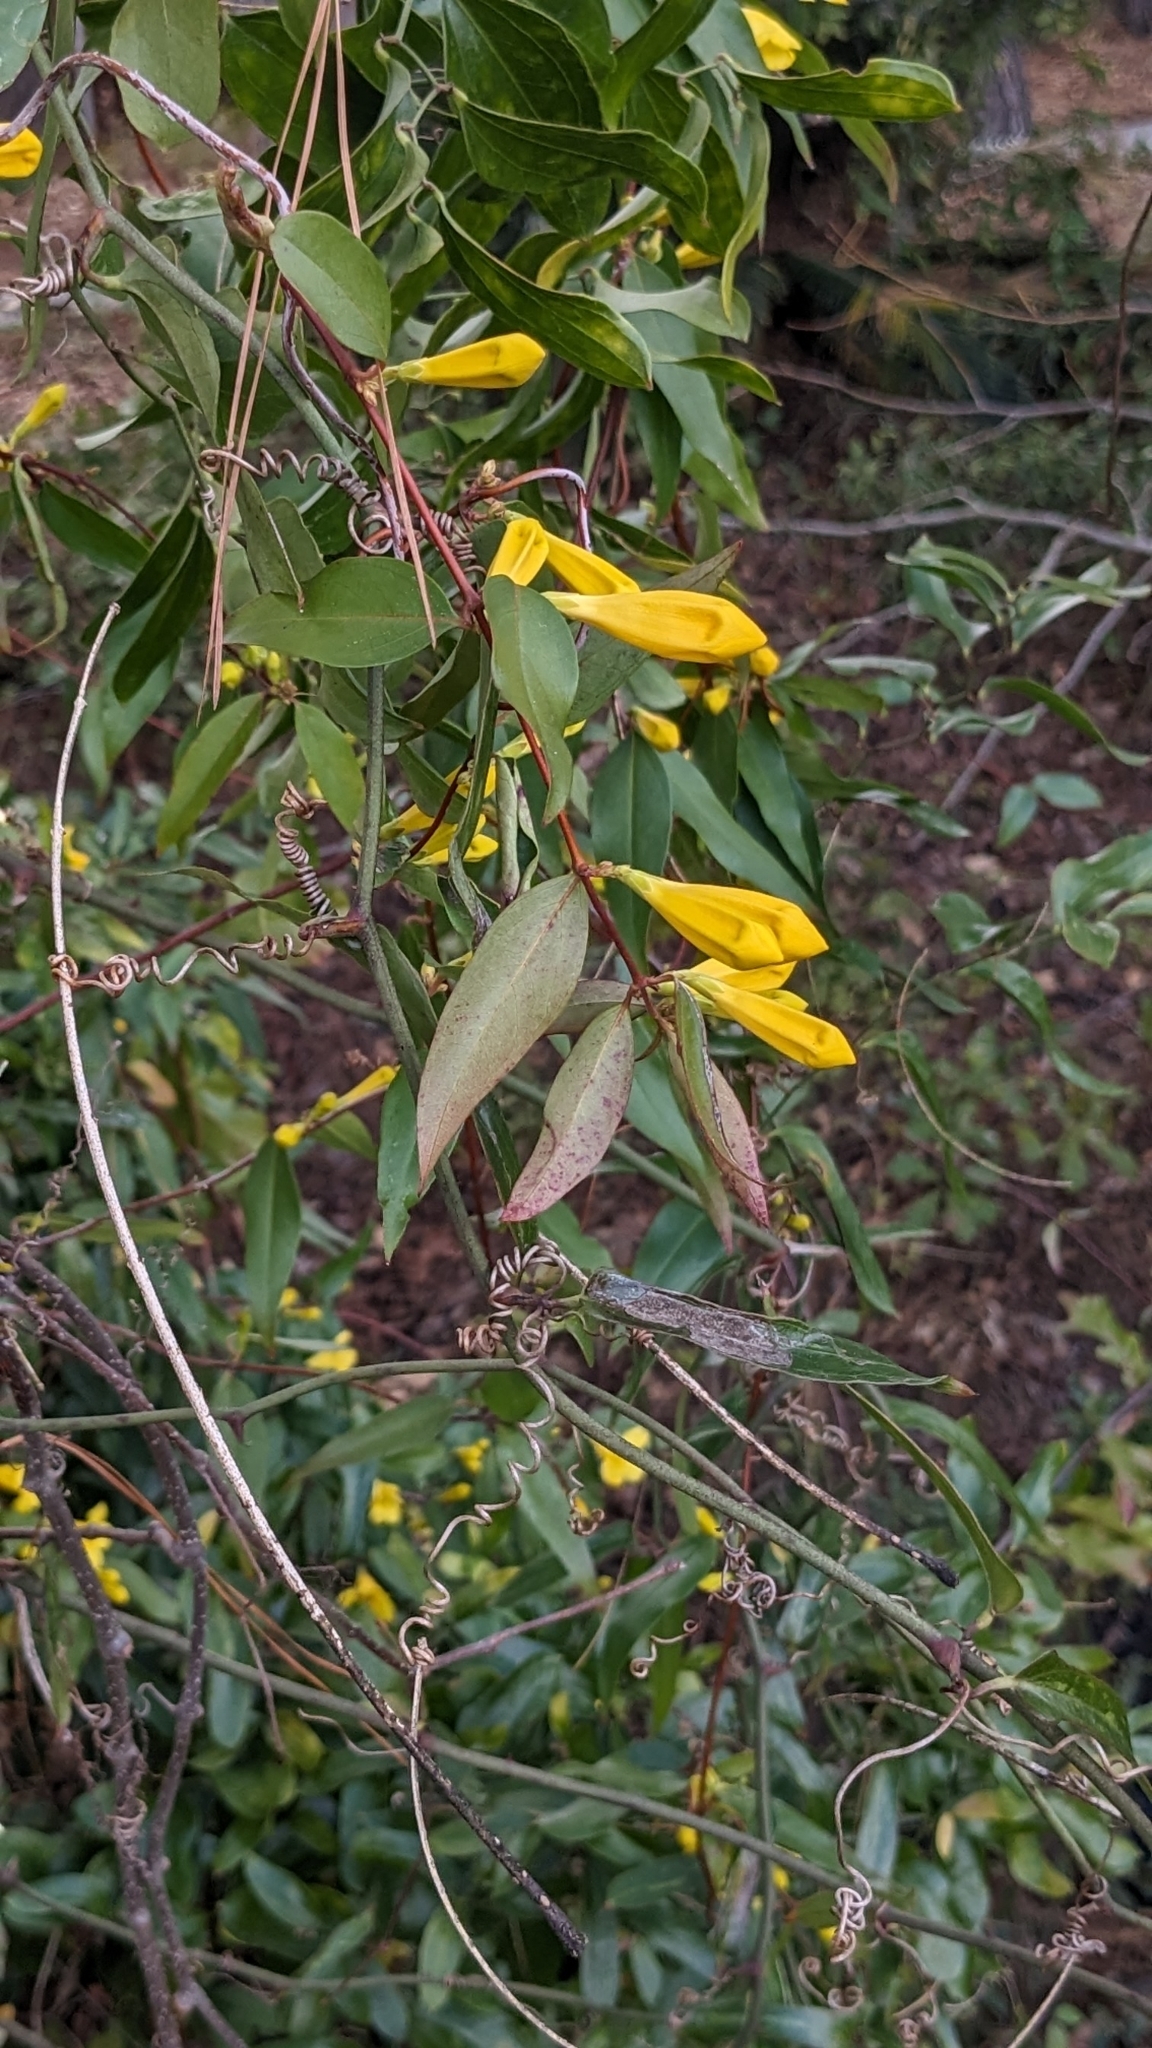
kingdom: Plantae
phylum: Tracheophyta
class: Magnoliopsida
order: Gentianales
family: Gelsemiaceae
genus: Gelsemium
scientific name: Gelsemium sempervirens
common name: Carolina-jasmine
